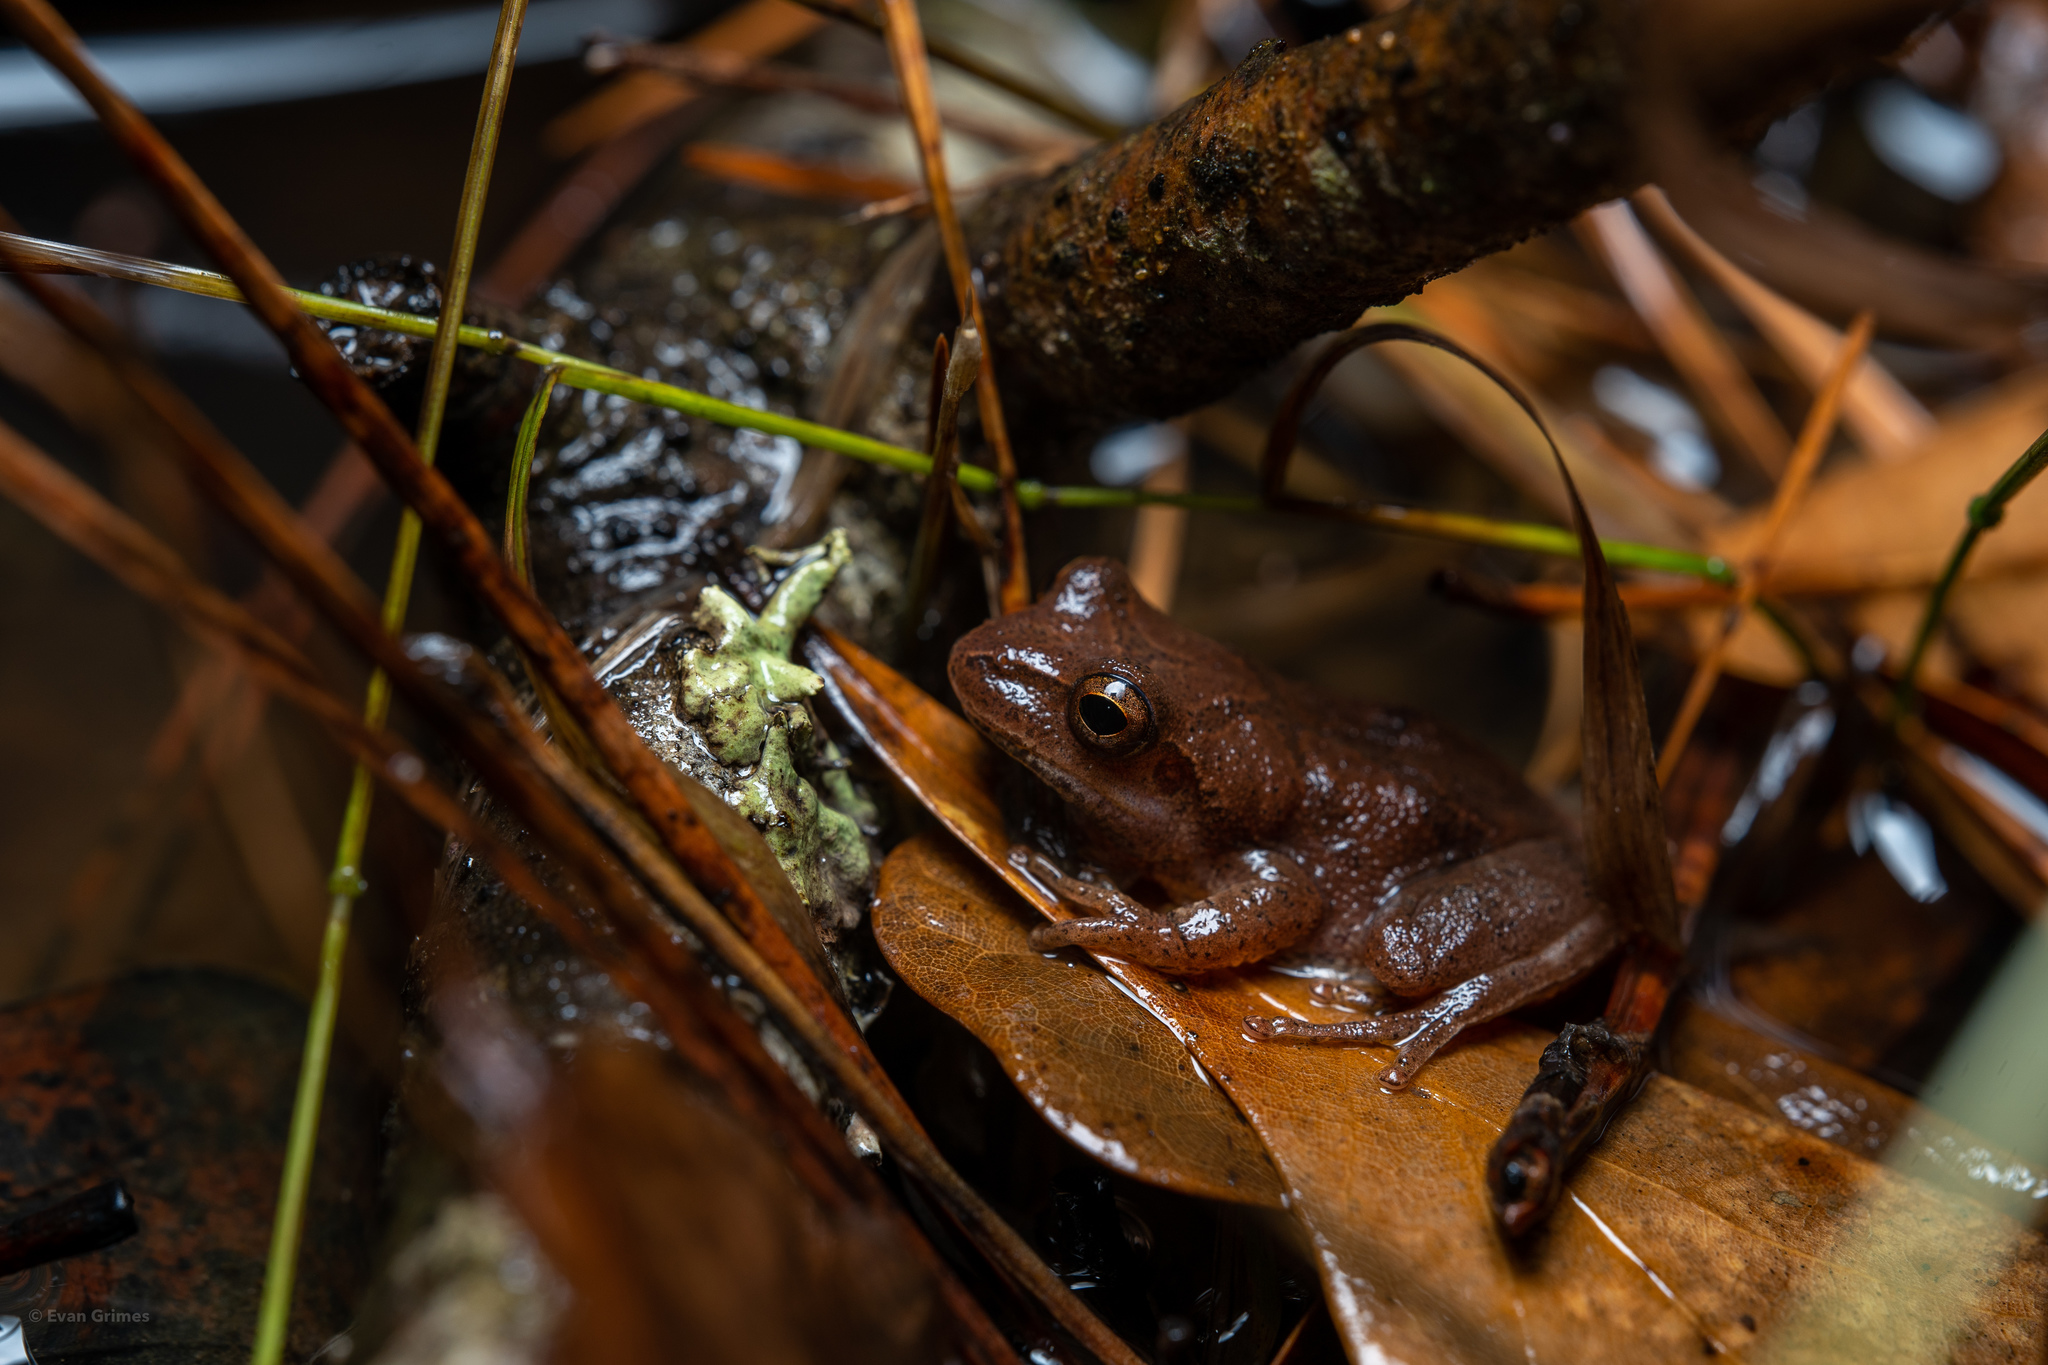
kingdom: Animalia
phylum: Chordata
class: Amphibia
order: Anura
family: Hylidae
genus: Pseudacris
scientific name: Pseudacris crucifer
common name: Spring peeper
